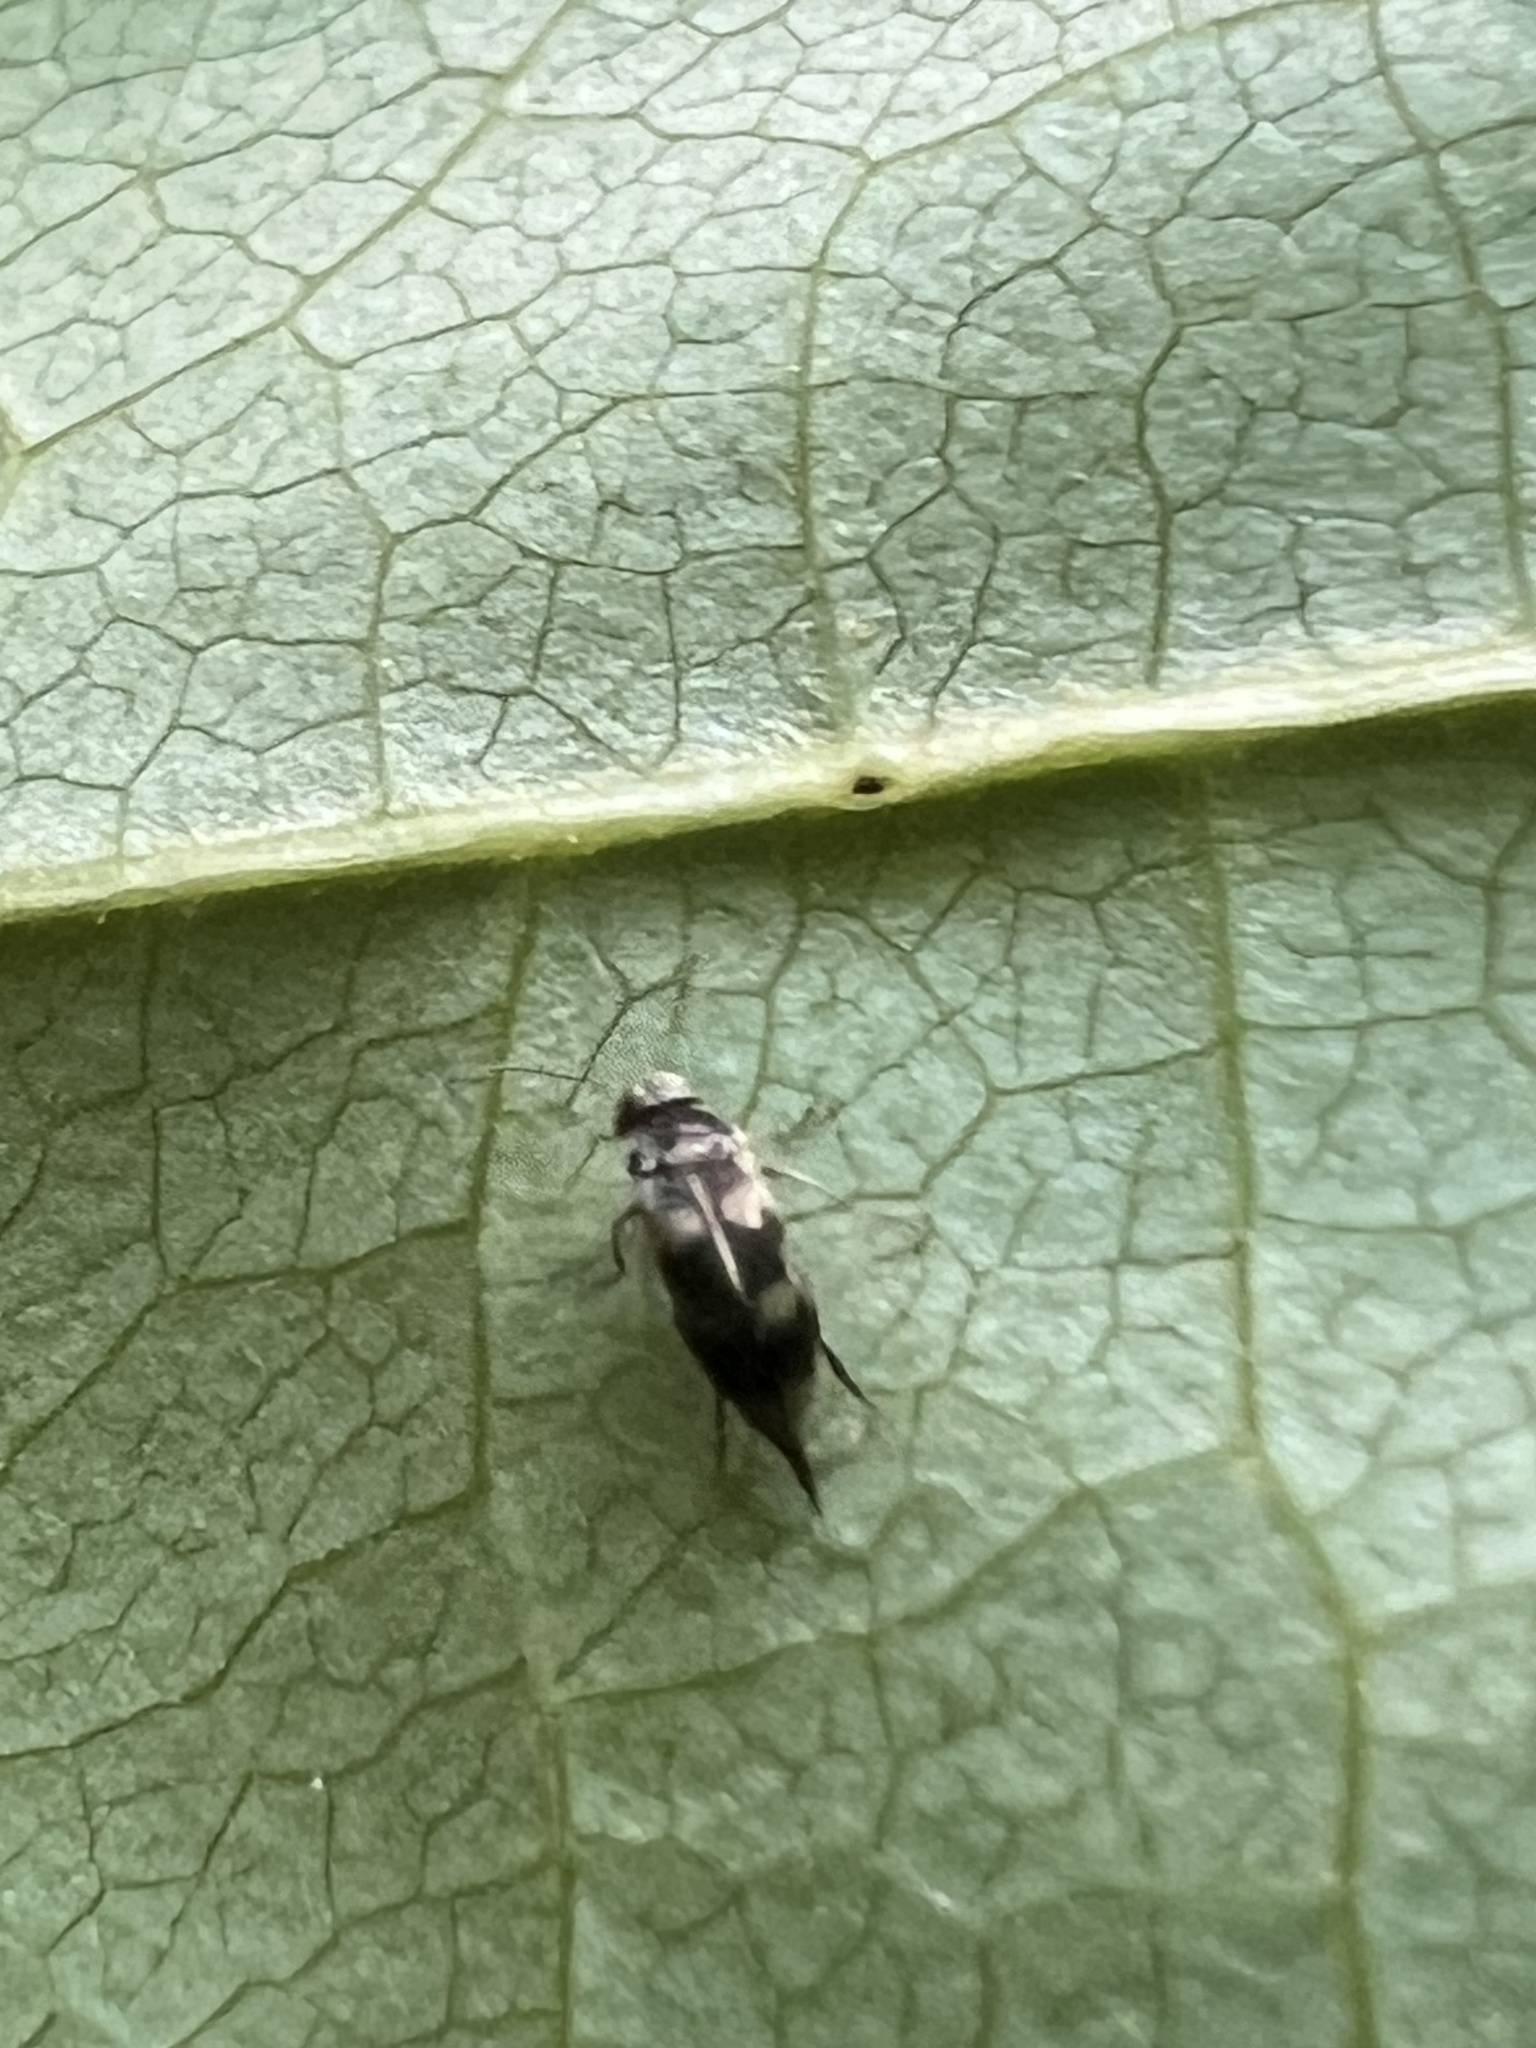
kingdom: Animalia
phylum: Arthropoda
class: Insecta
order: Coleoptera
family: Mordellidae
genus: Falsomordellistena
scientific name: Falsomordellistena pubescens
